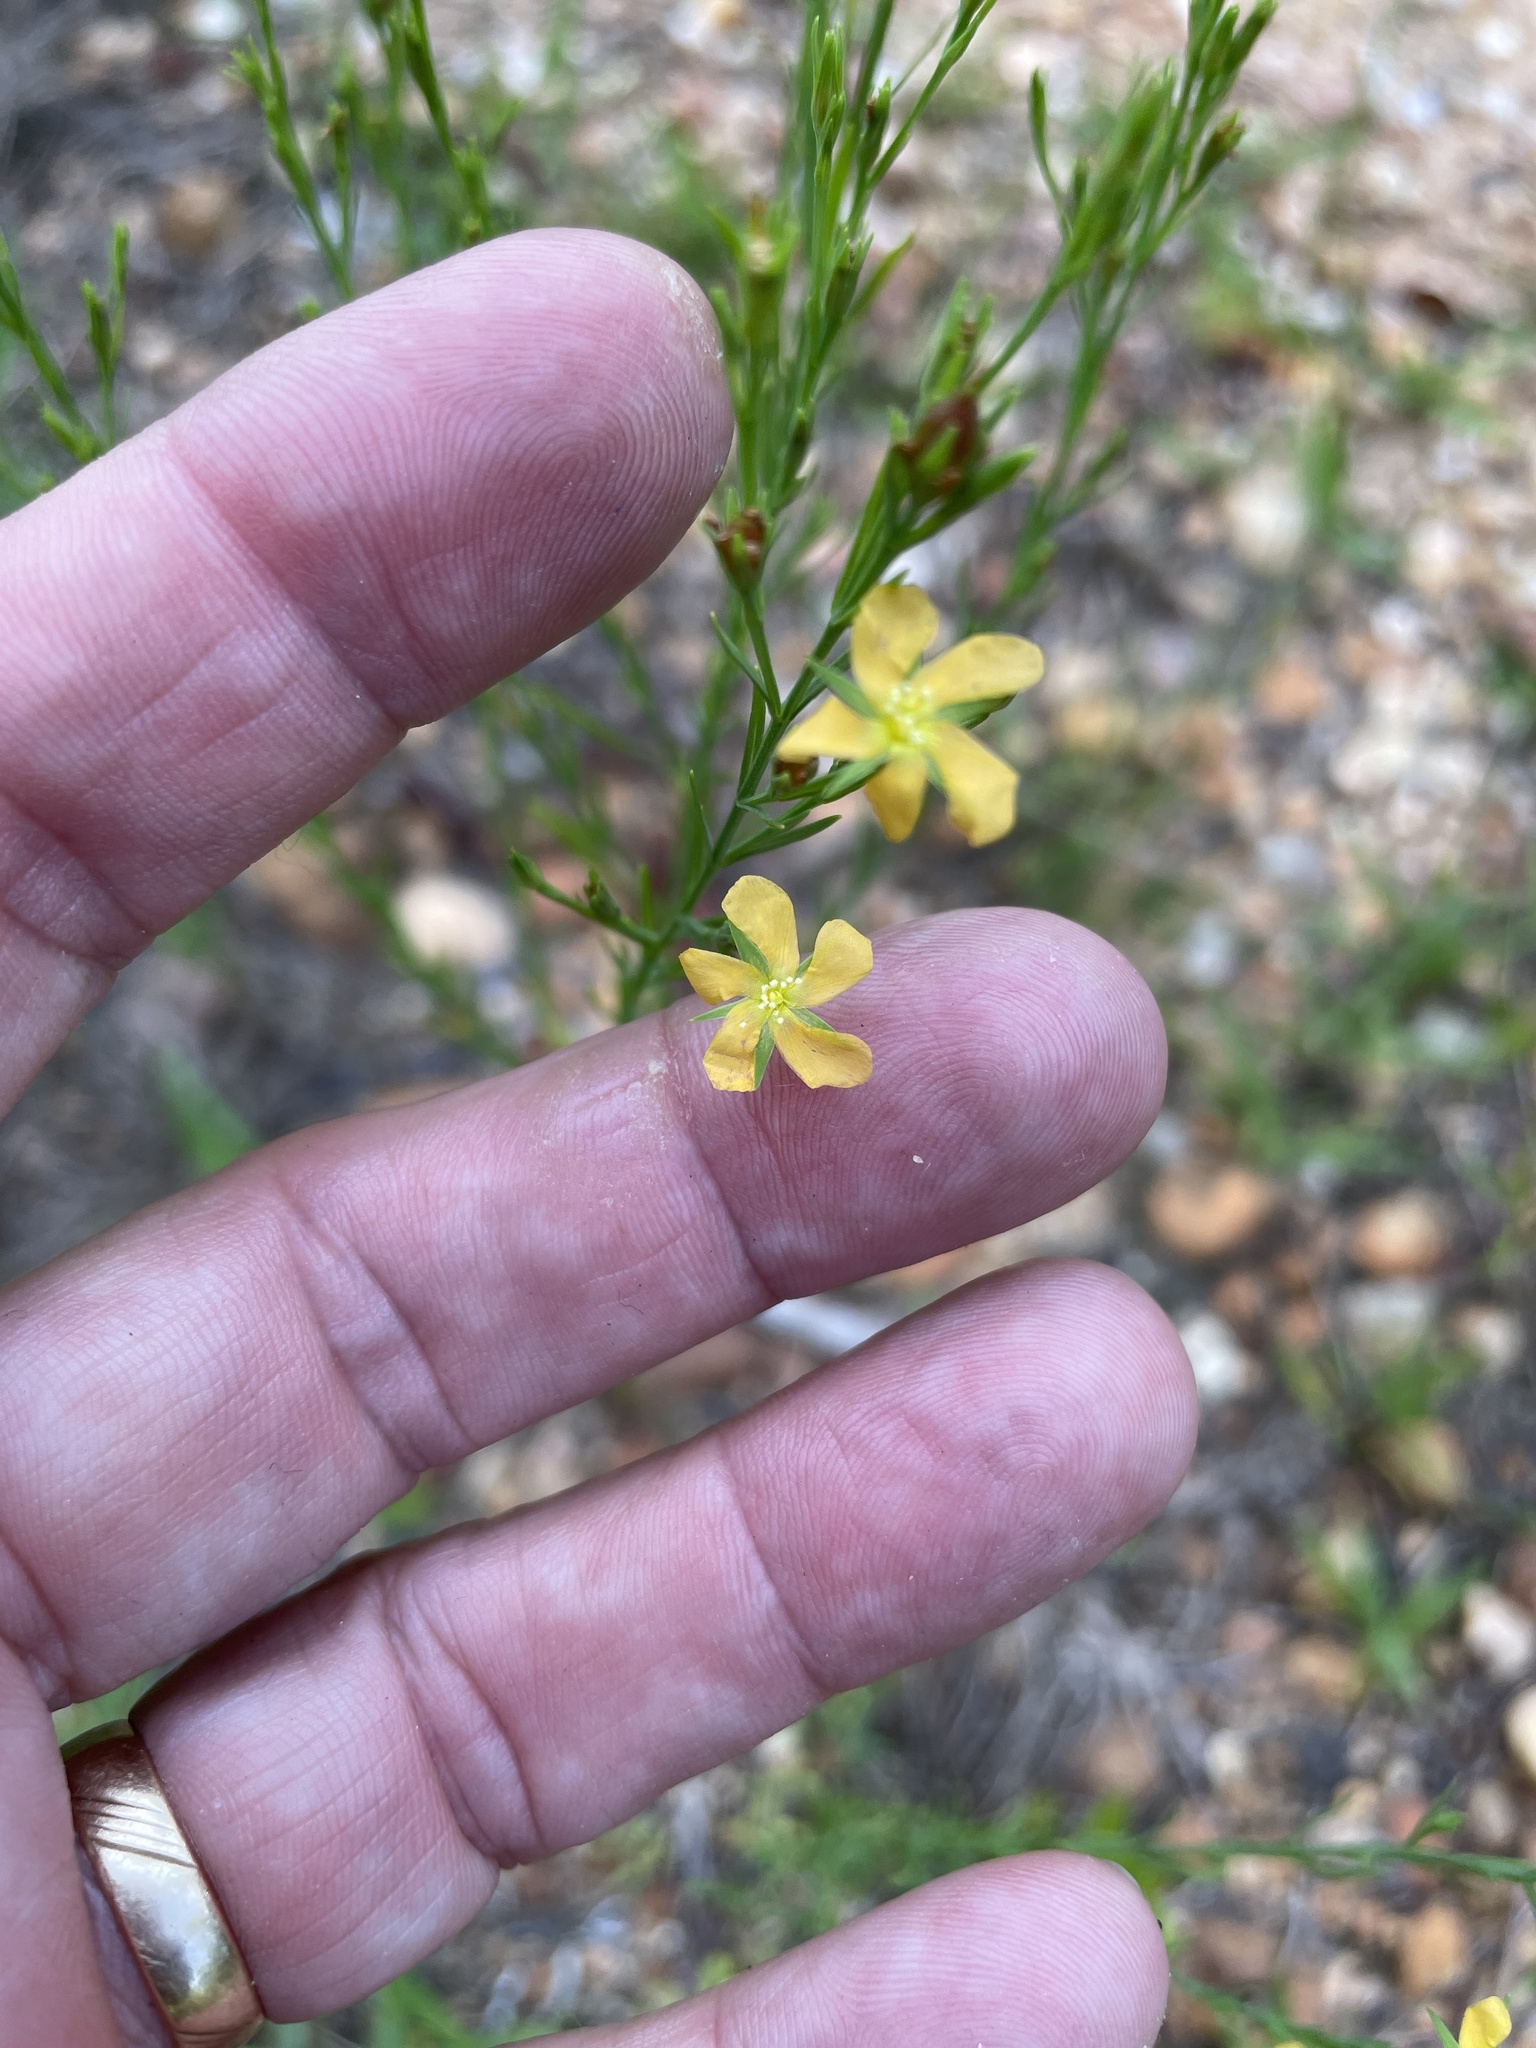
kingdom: Plantae
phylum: Tracheophyta
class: Magnoliopsida
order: Malpighiales
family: Hypericaceae
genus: Hypericum
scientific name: Hypericum drummondii
